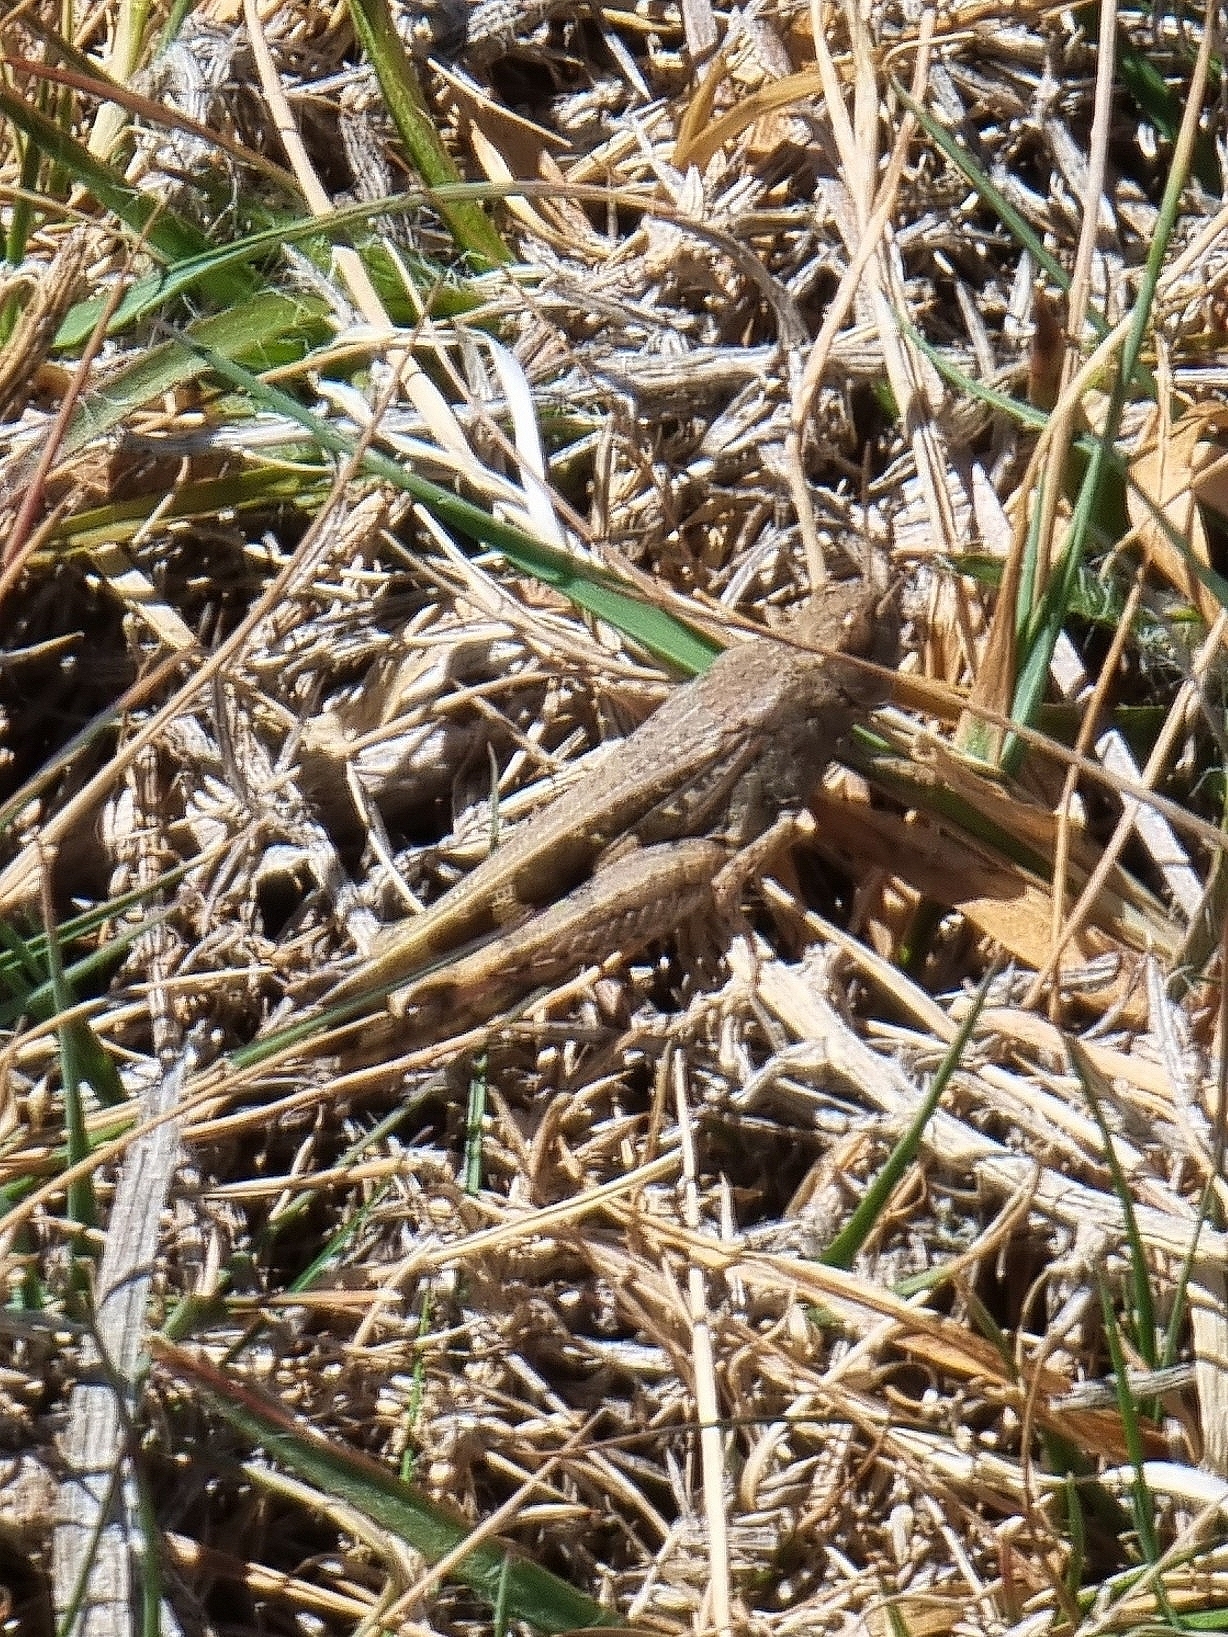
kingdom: Animalia
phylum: Arthropoda
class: Insecta
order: Orthoptera
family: Acrididae
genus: Aiolopus
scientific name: Aiolopus strepens
